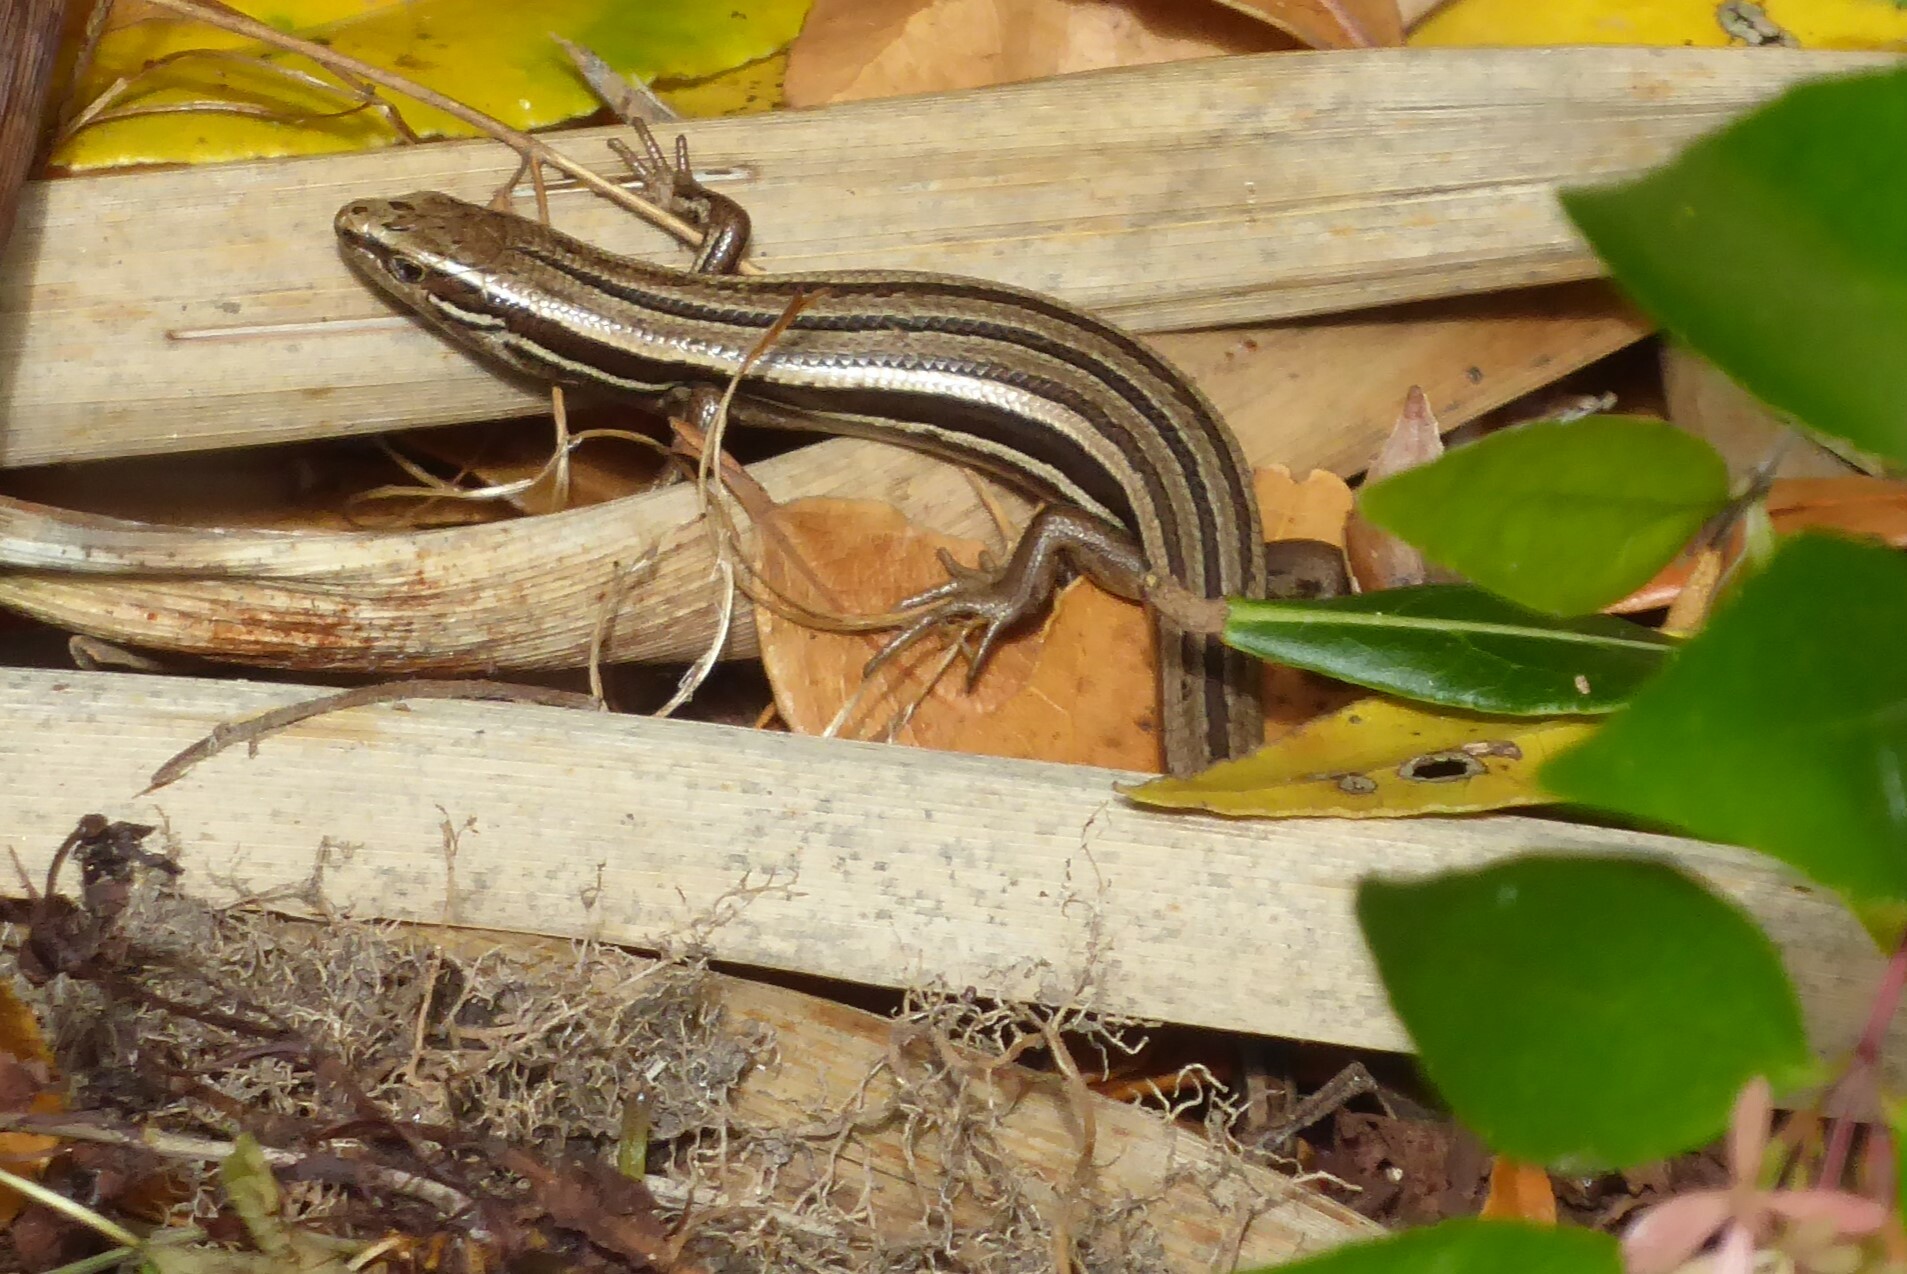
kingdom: Animalia
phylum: Chordata
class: Squamata
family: Scincidae
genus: Oligosoma
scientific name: Oligosoma polychroma
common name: Common new zealand skink
